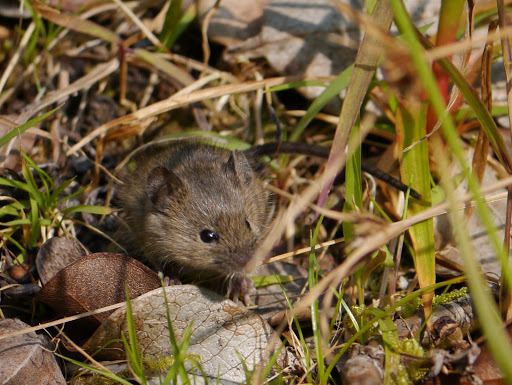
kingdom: Animalia
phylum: Chordata
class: Mammalia
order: Rodentia
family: Muridae
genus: Mus
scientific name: Mus musculus
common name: House mouse
